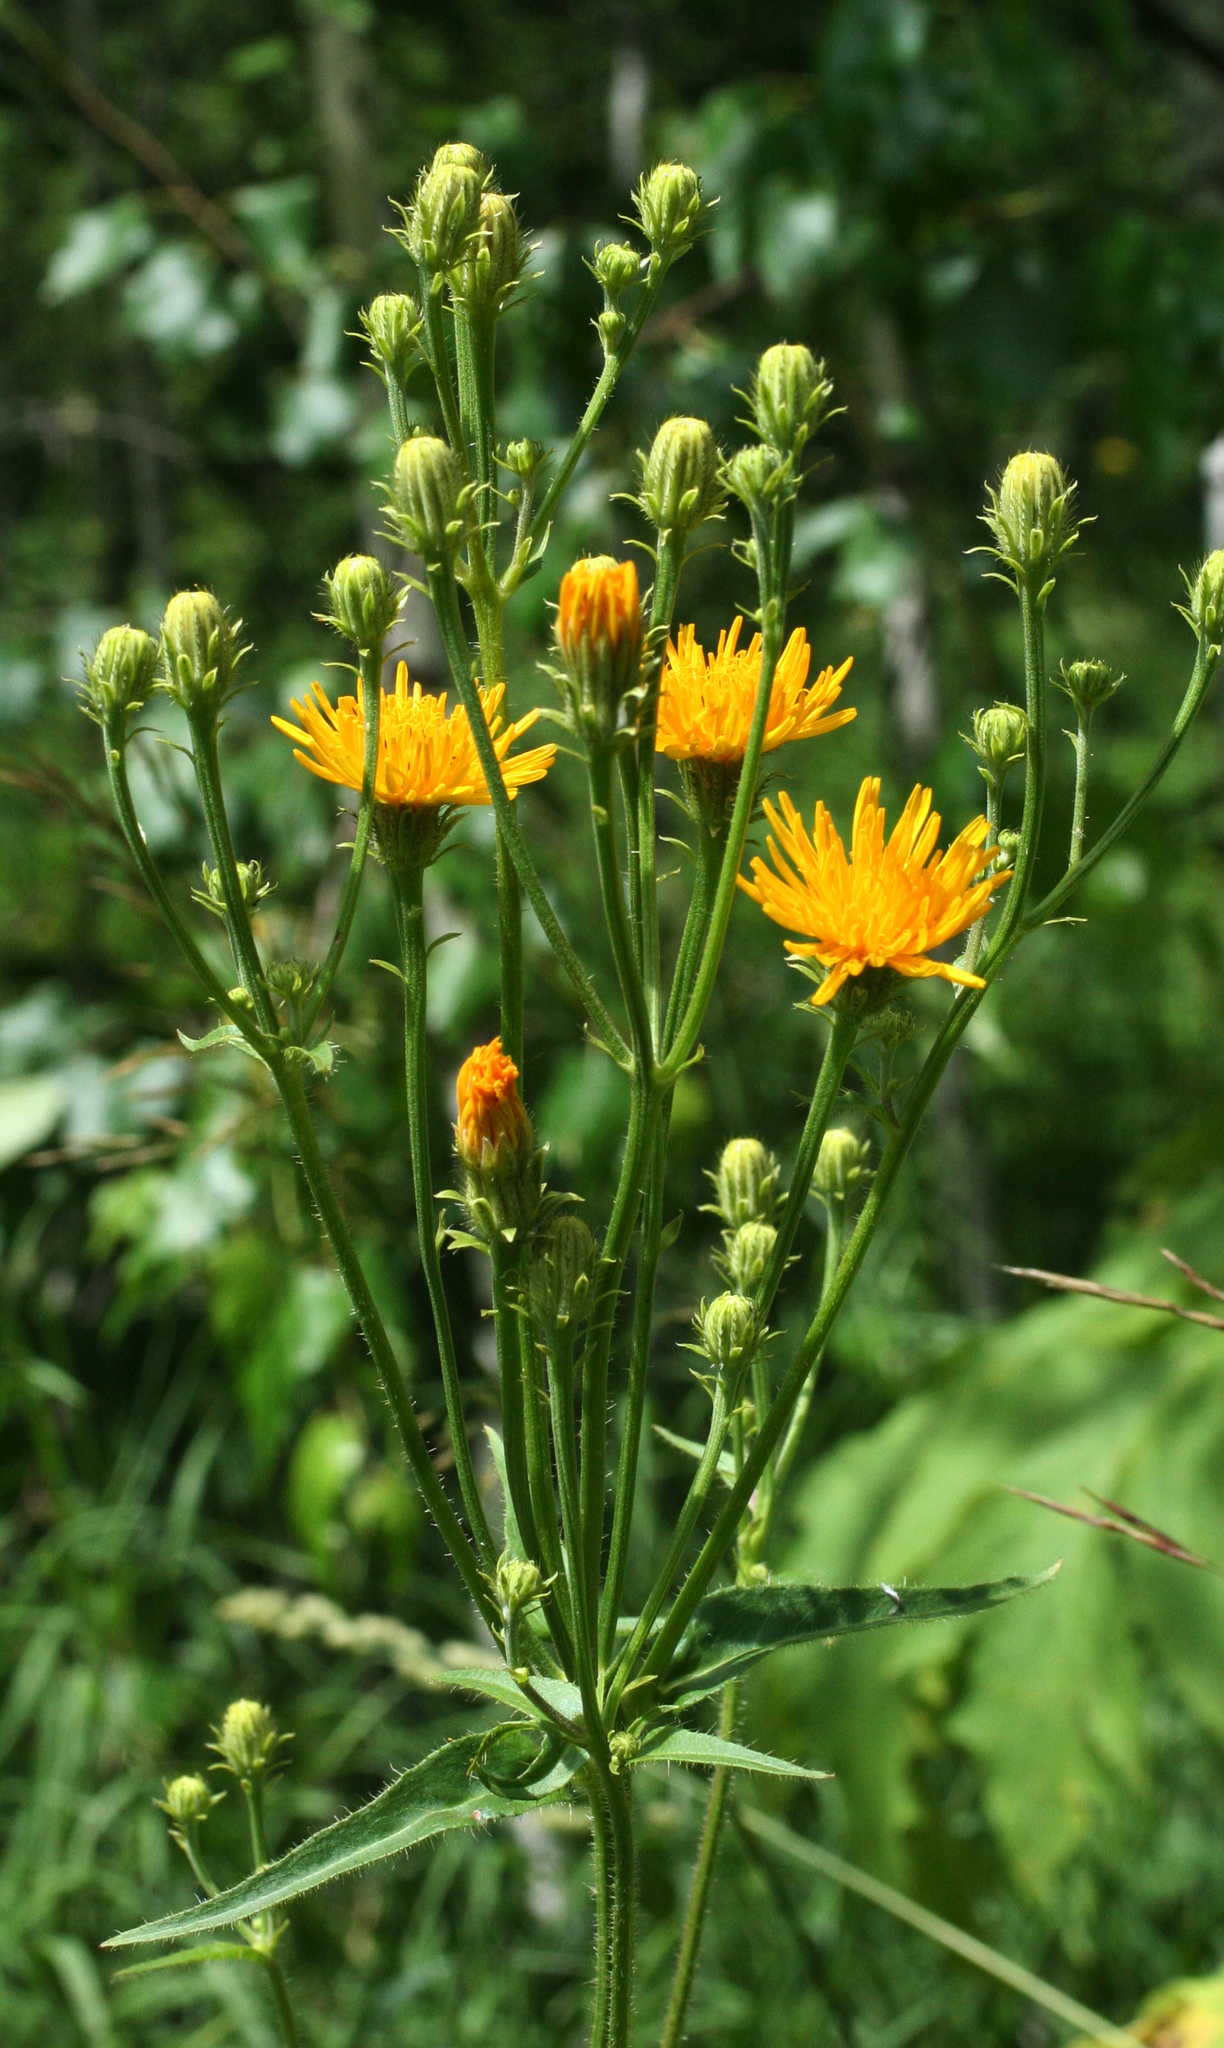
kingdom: Plantae
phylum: Tracheophyta
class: Magnoliopsida
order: Asterales
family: Asteraceae
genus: Picris
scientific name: Picris hieracioides
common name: Hawkweed oxtongue
